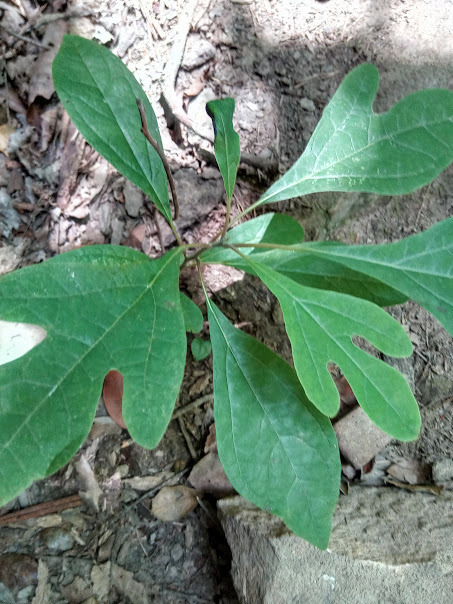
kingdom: Plantae
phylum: Tracheophyta
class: Magnoliopsida
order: Laurales
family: Lauraceae
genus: Sassafras
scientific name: Sassafras albidum
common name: Sassafras
